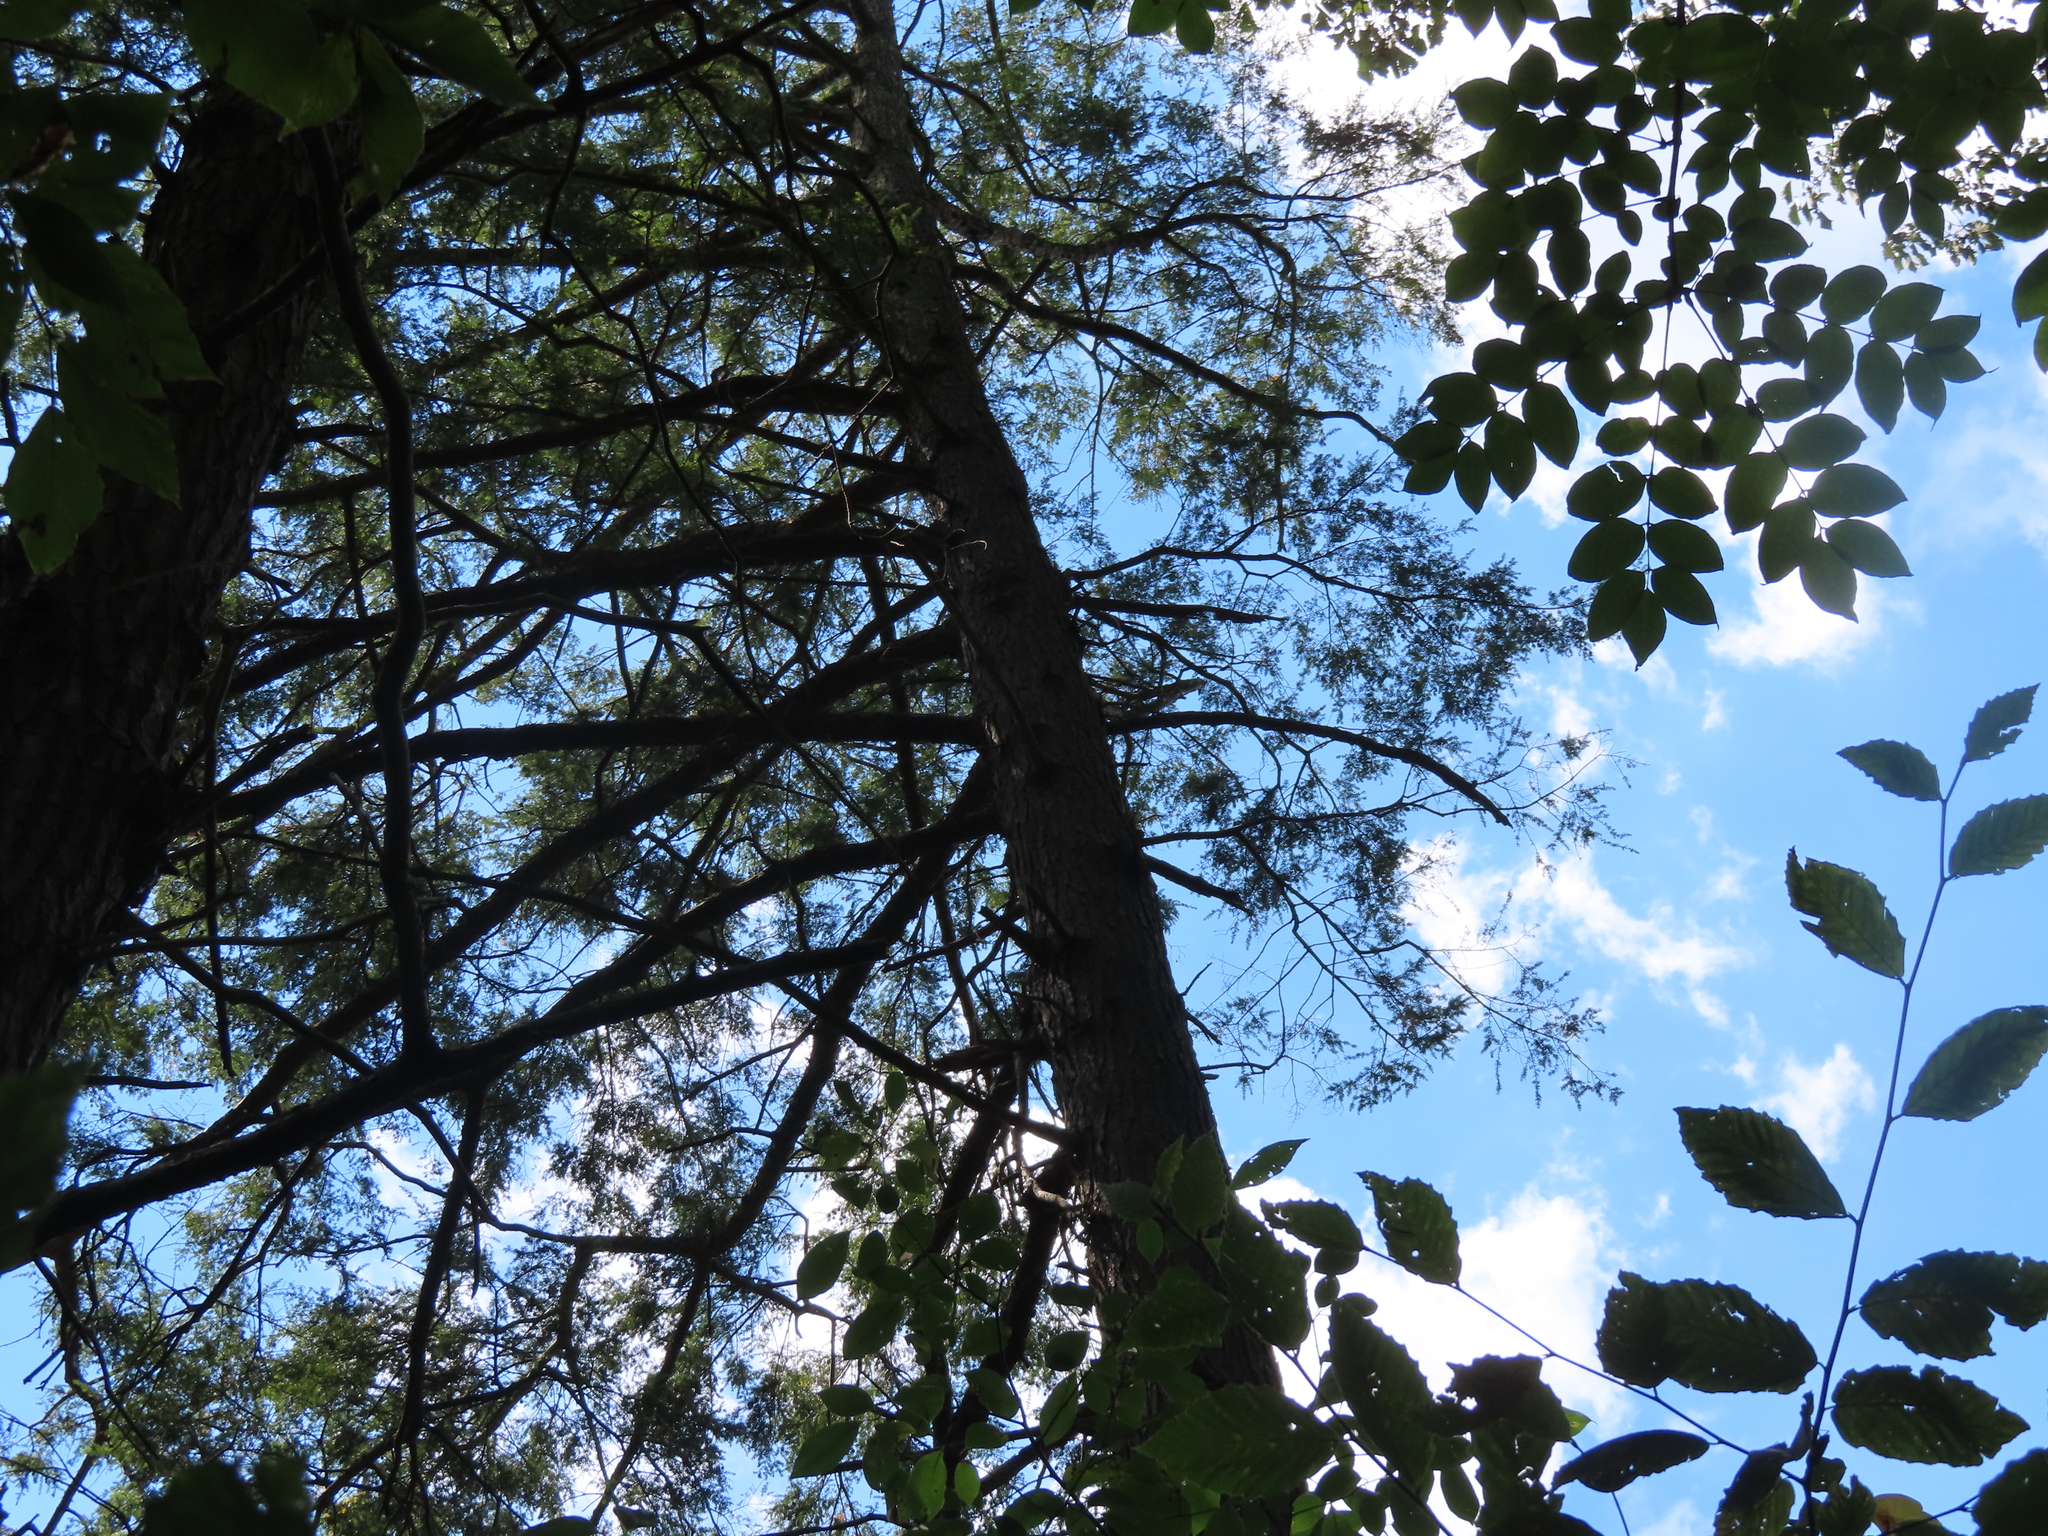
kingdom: Plantae
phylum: Tracheophyta
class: Pinopsida
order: Pinales
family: Pinaceae
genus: Tsuga
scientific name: Tsuga canadensis
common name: Eastern hemlock
